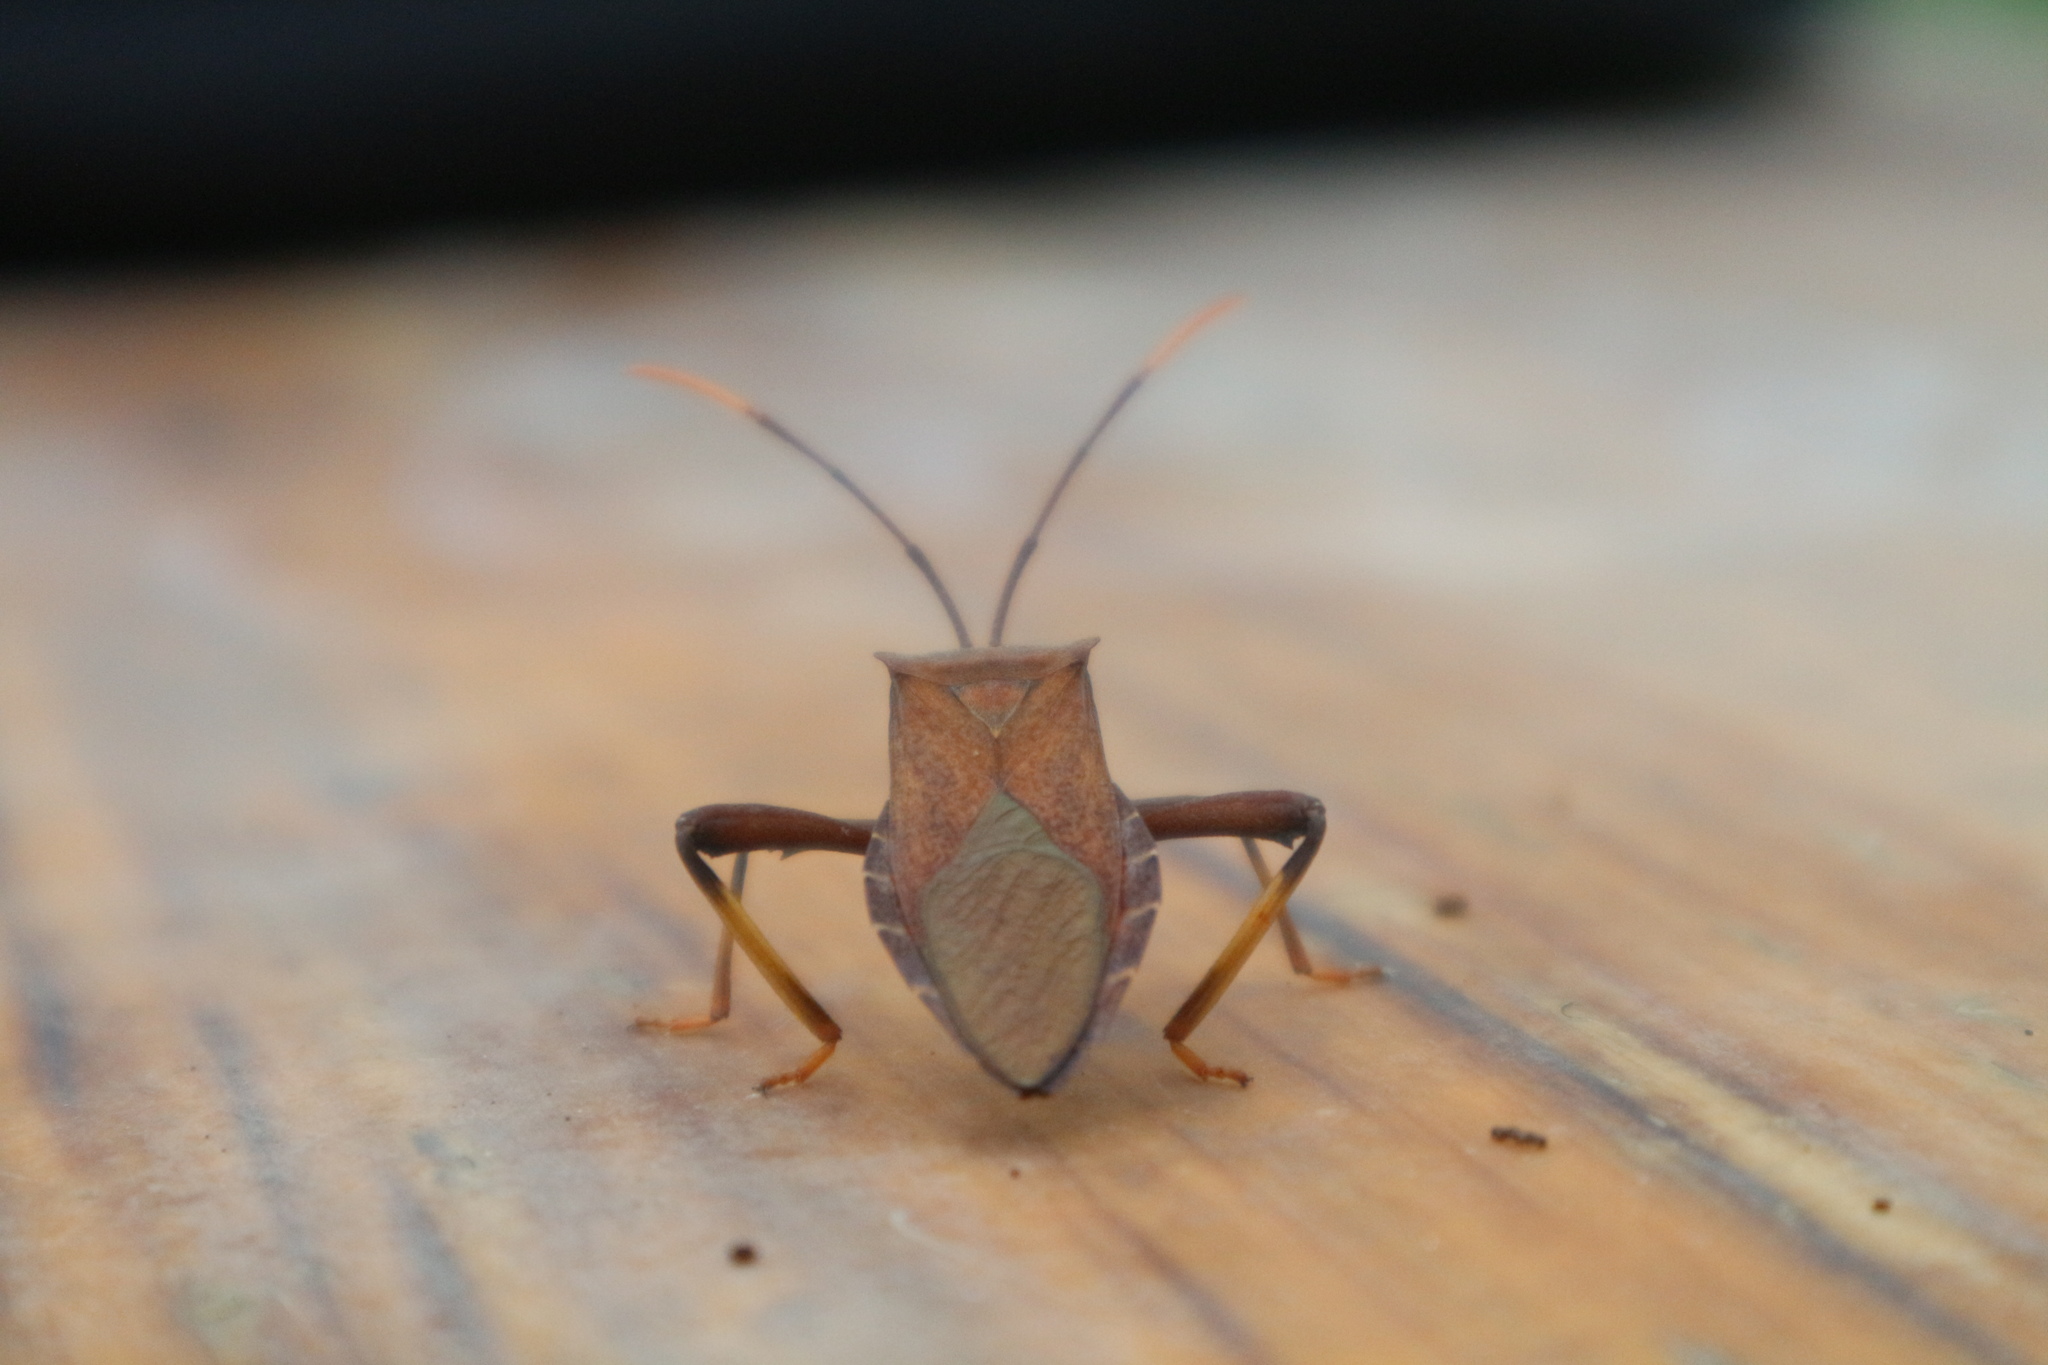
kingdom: Animalia
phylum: Arthropoda
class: Insecta
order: Hemiptera
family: Coreidae
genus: Mictis
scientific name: Mictis serina
